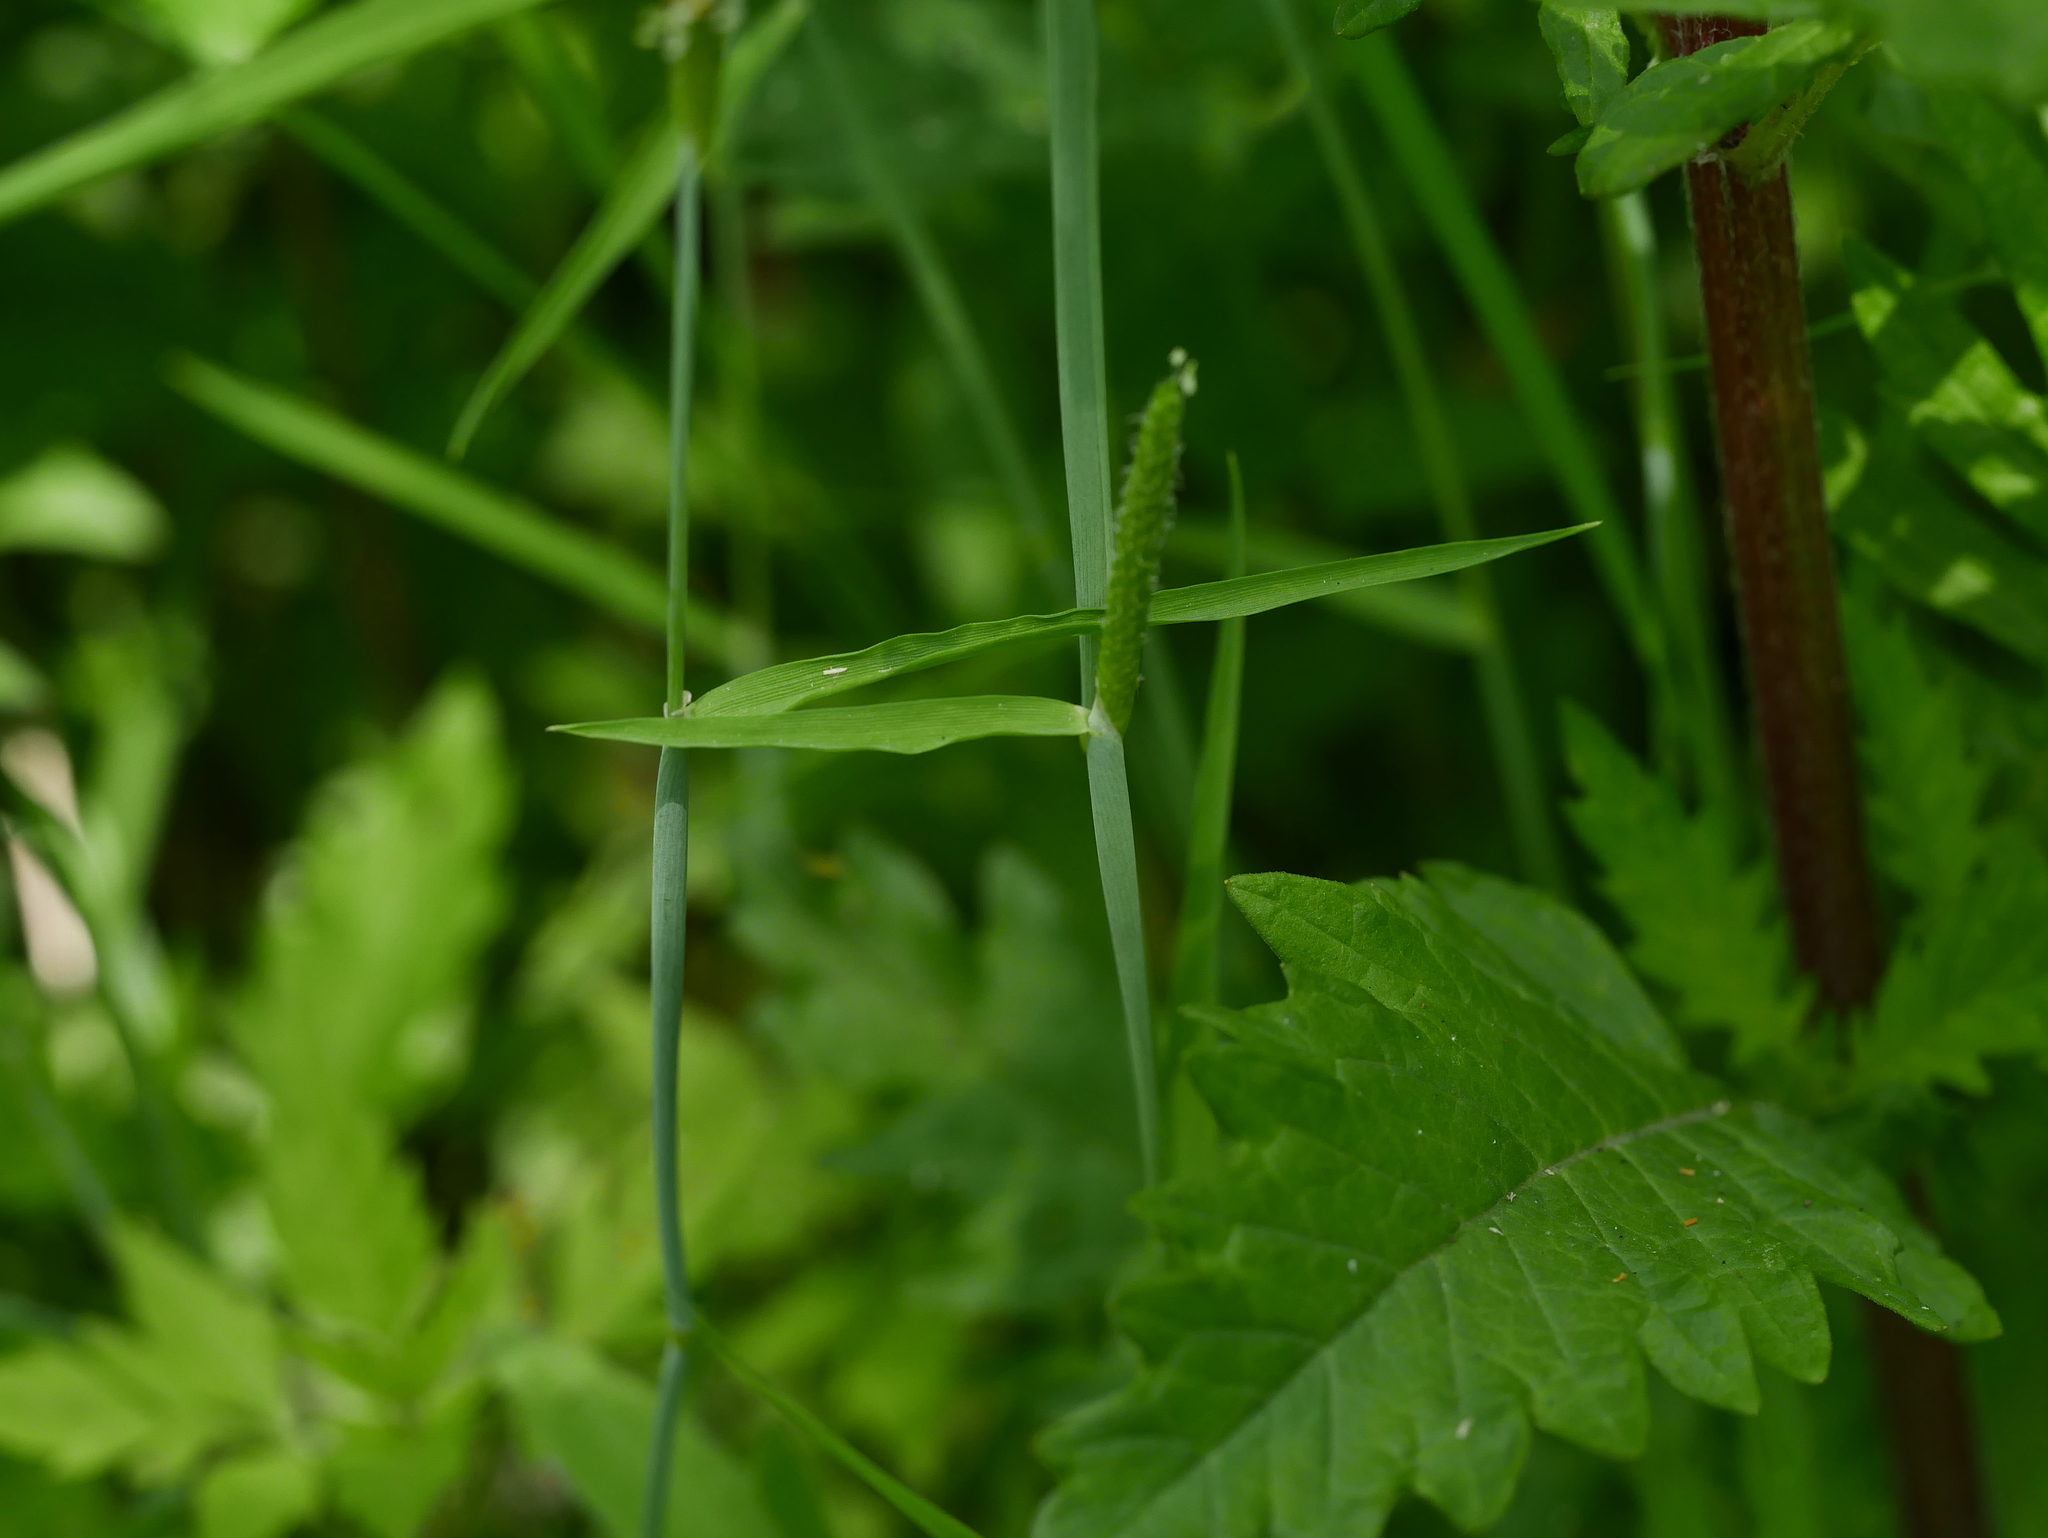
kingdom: Plantae
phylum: Tracheophyta
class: Liliopsida
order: Poales
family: Poaceae
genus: Alopecurus
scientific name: Alopecurus aequalis
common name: Orange foxtail
